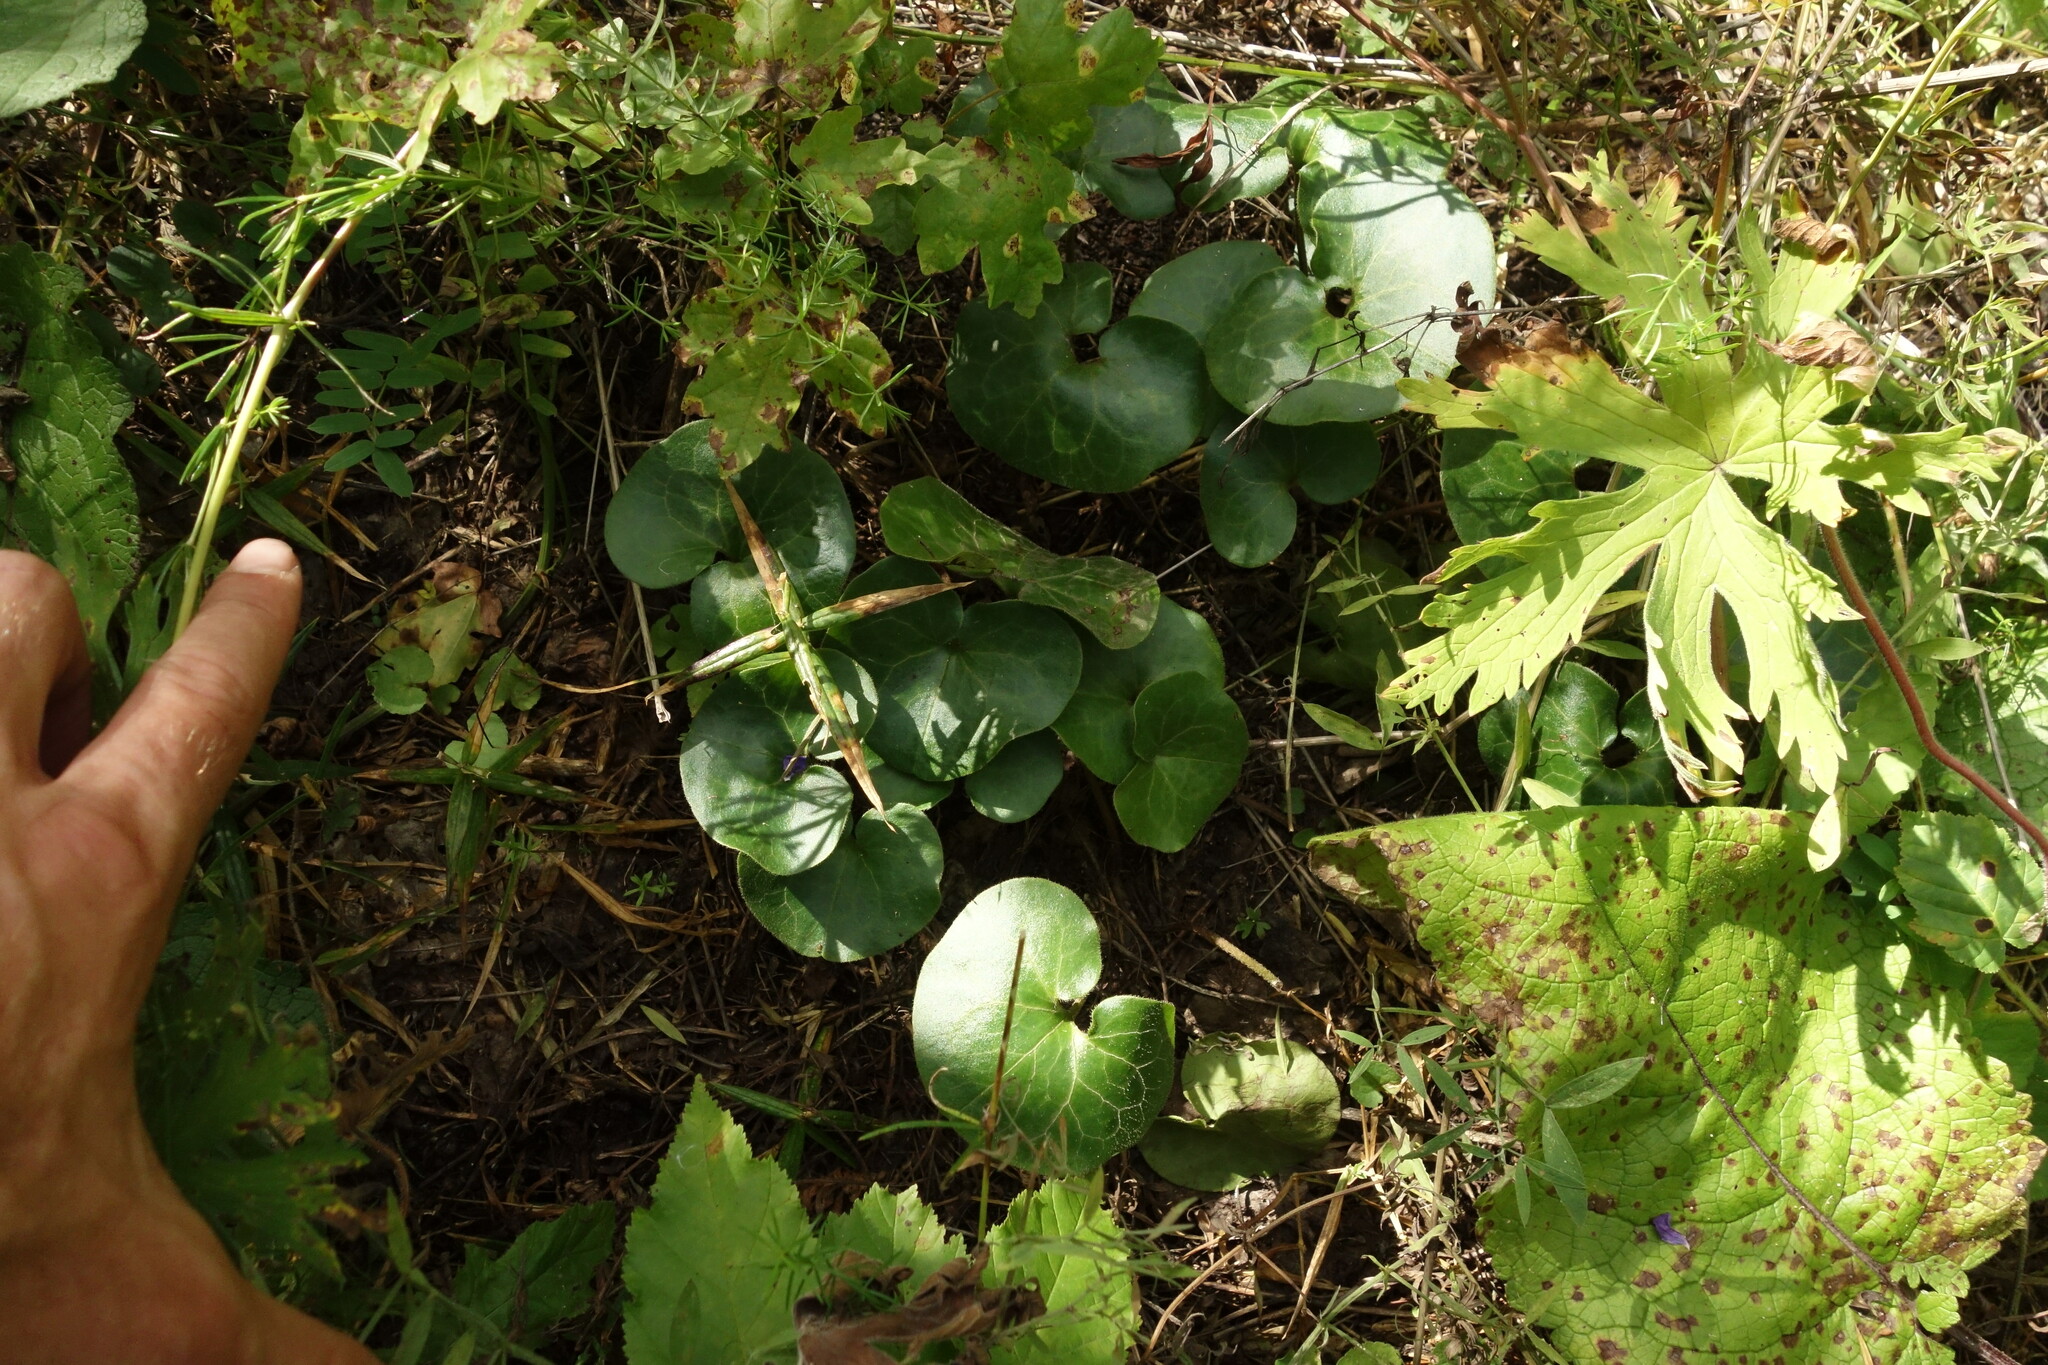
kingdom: Plantae
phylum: Tracheophyta
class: Magnoliopsida
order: Piperales
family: Aristolochiaceae
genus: Asarum
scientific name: Asarum europaeum
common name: Asarabacca
